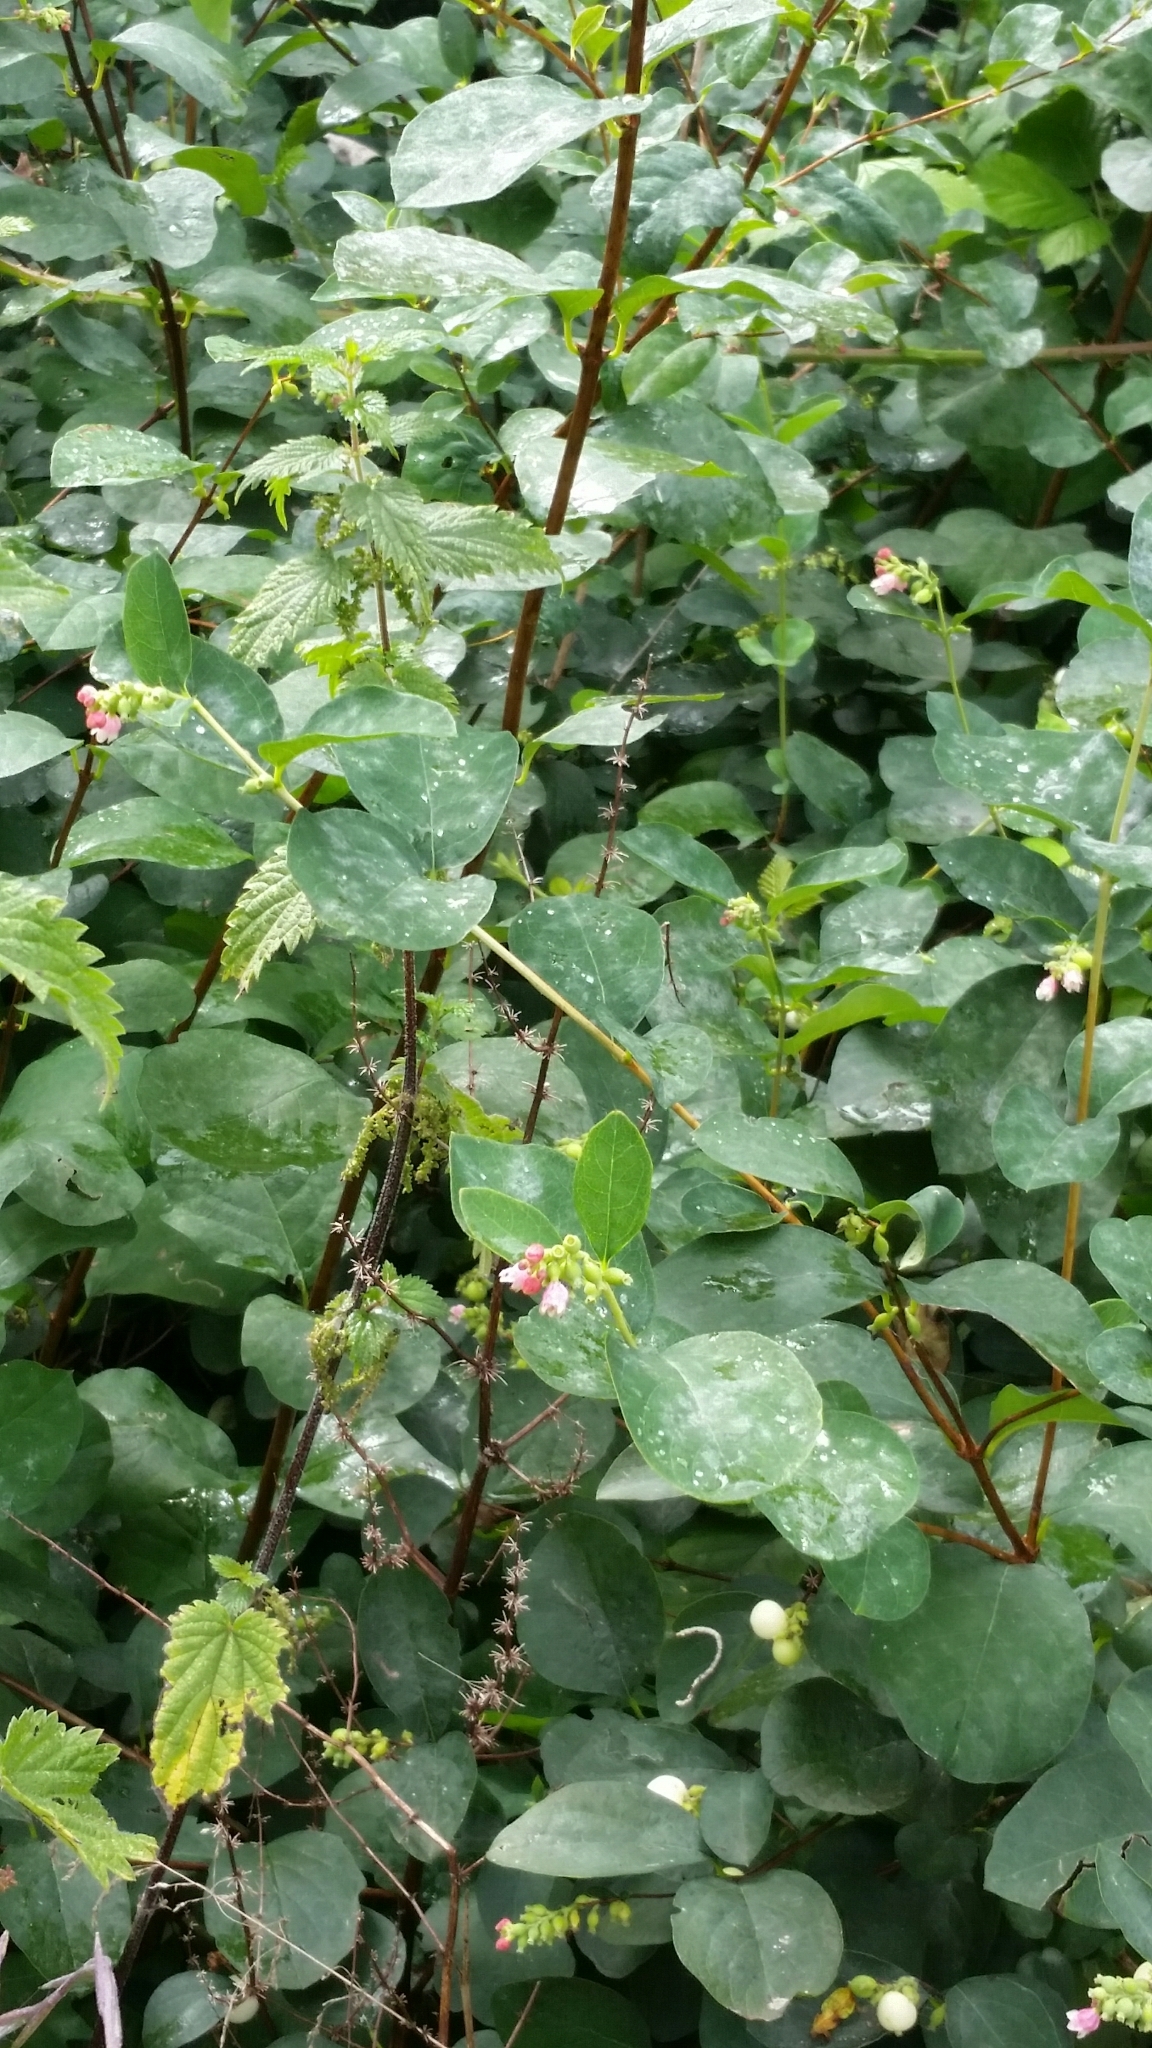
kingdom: Plantae
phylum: Tracheophyta
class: Magnoliopsida
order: Dipsacales
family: Caprifoliaceae
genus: Symphoricarpos
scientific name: Symphoricarpos albus
